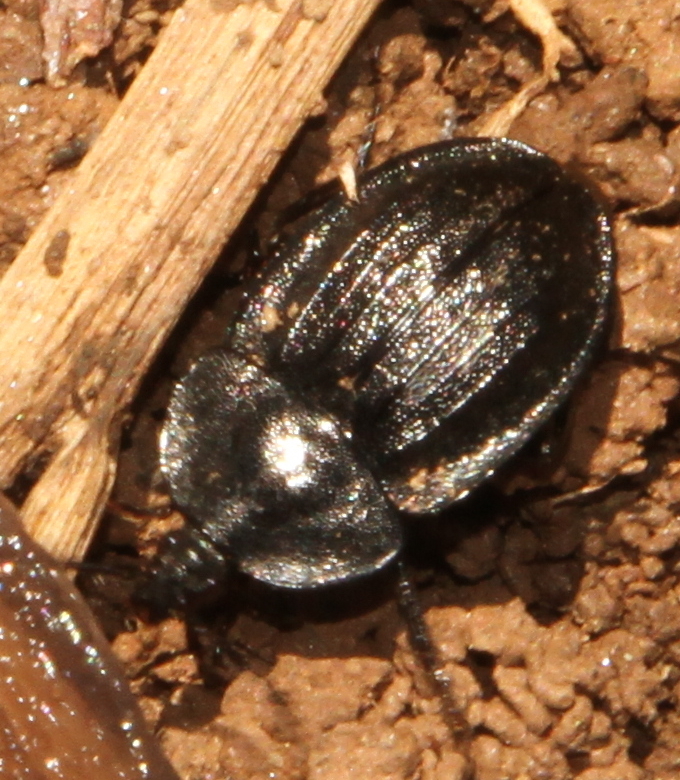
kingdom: Animalia
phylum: Arthropoda
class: Insecta
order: Coleoptera
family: Staphylinidae
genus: Silpha
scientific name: Silpha atrata
